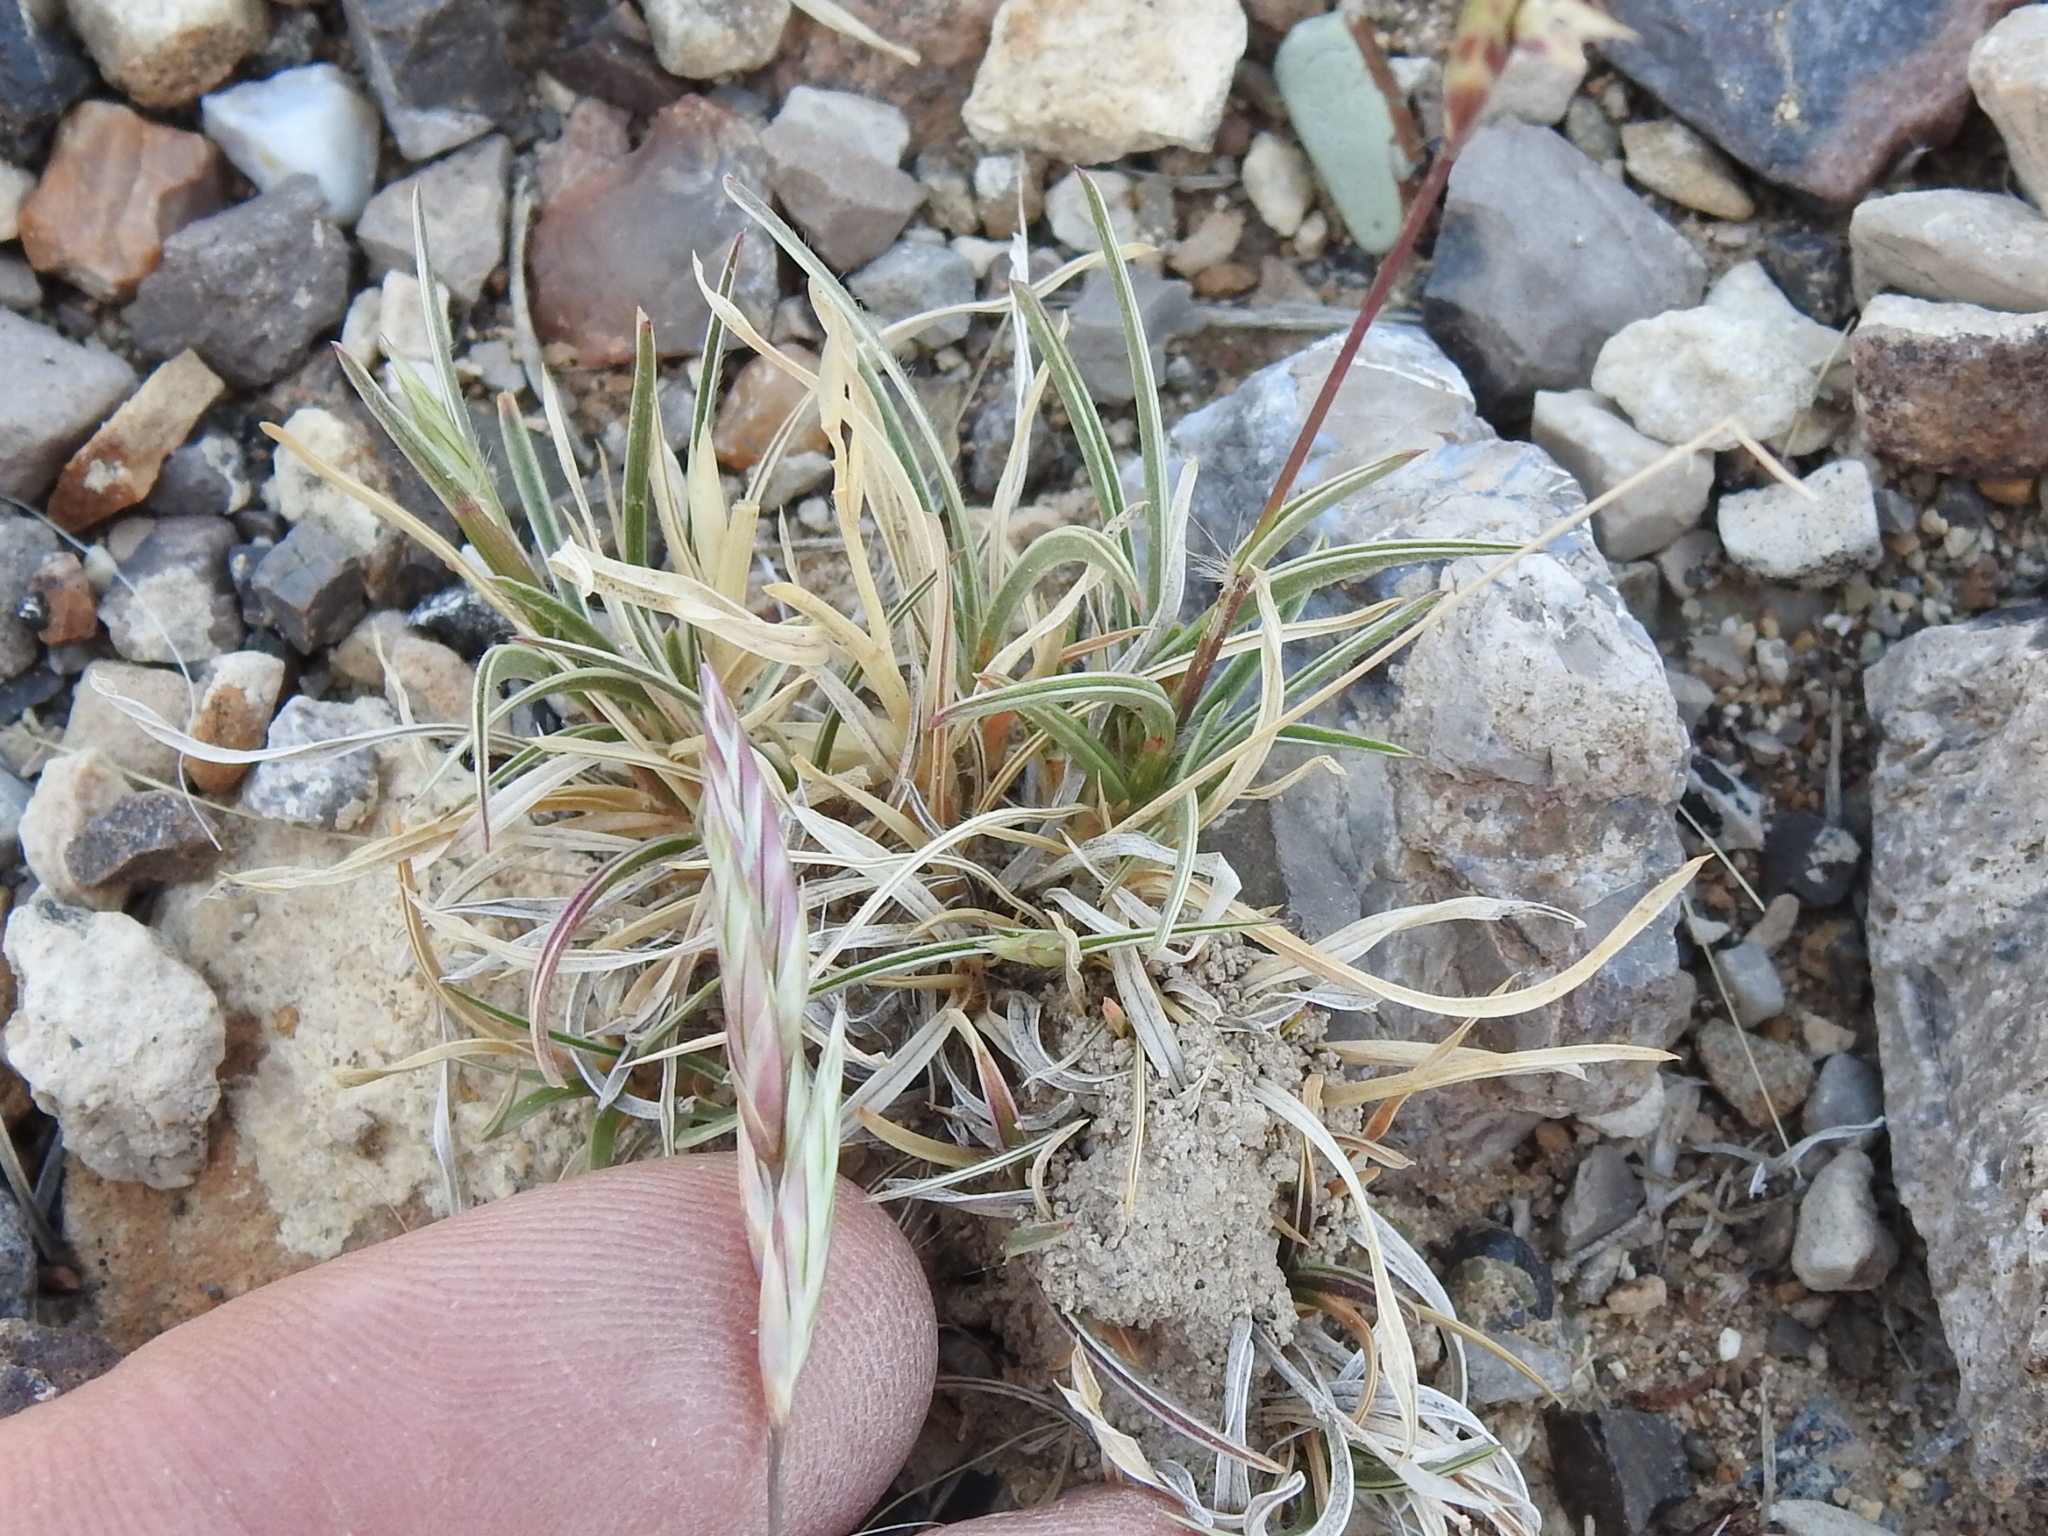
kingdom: Plantae
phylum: Tracheophyta
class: Liliopsida
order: Poales
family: Poaceae
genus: Erioneuron
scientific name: Erioneuron pilosum
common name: Hairy woolly grass
